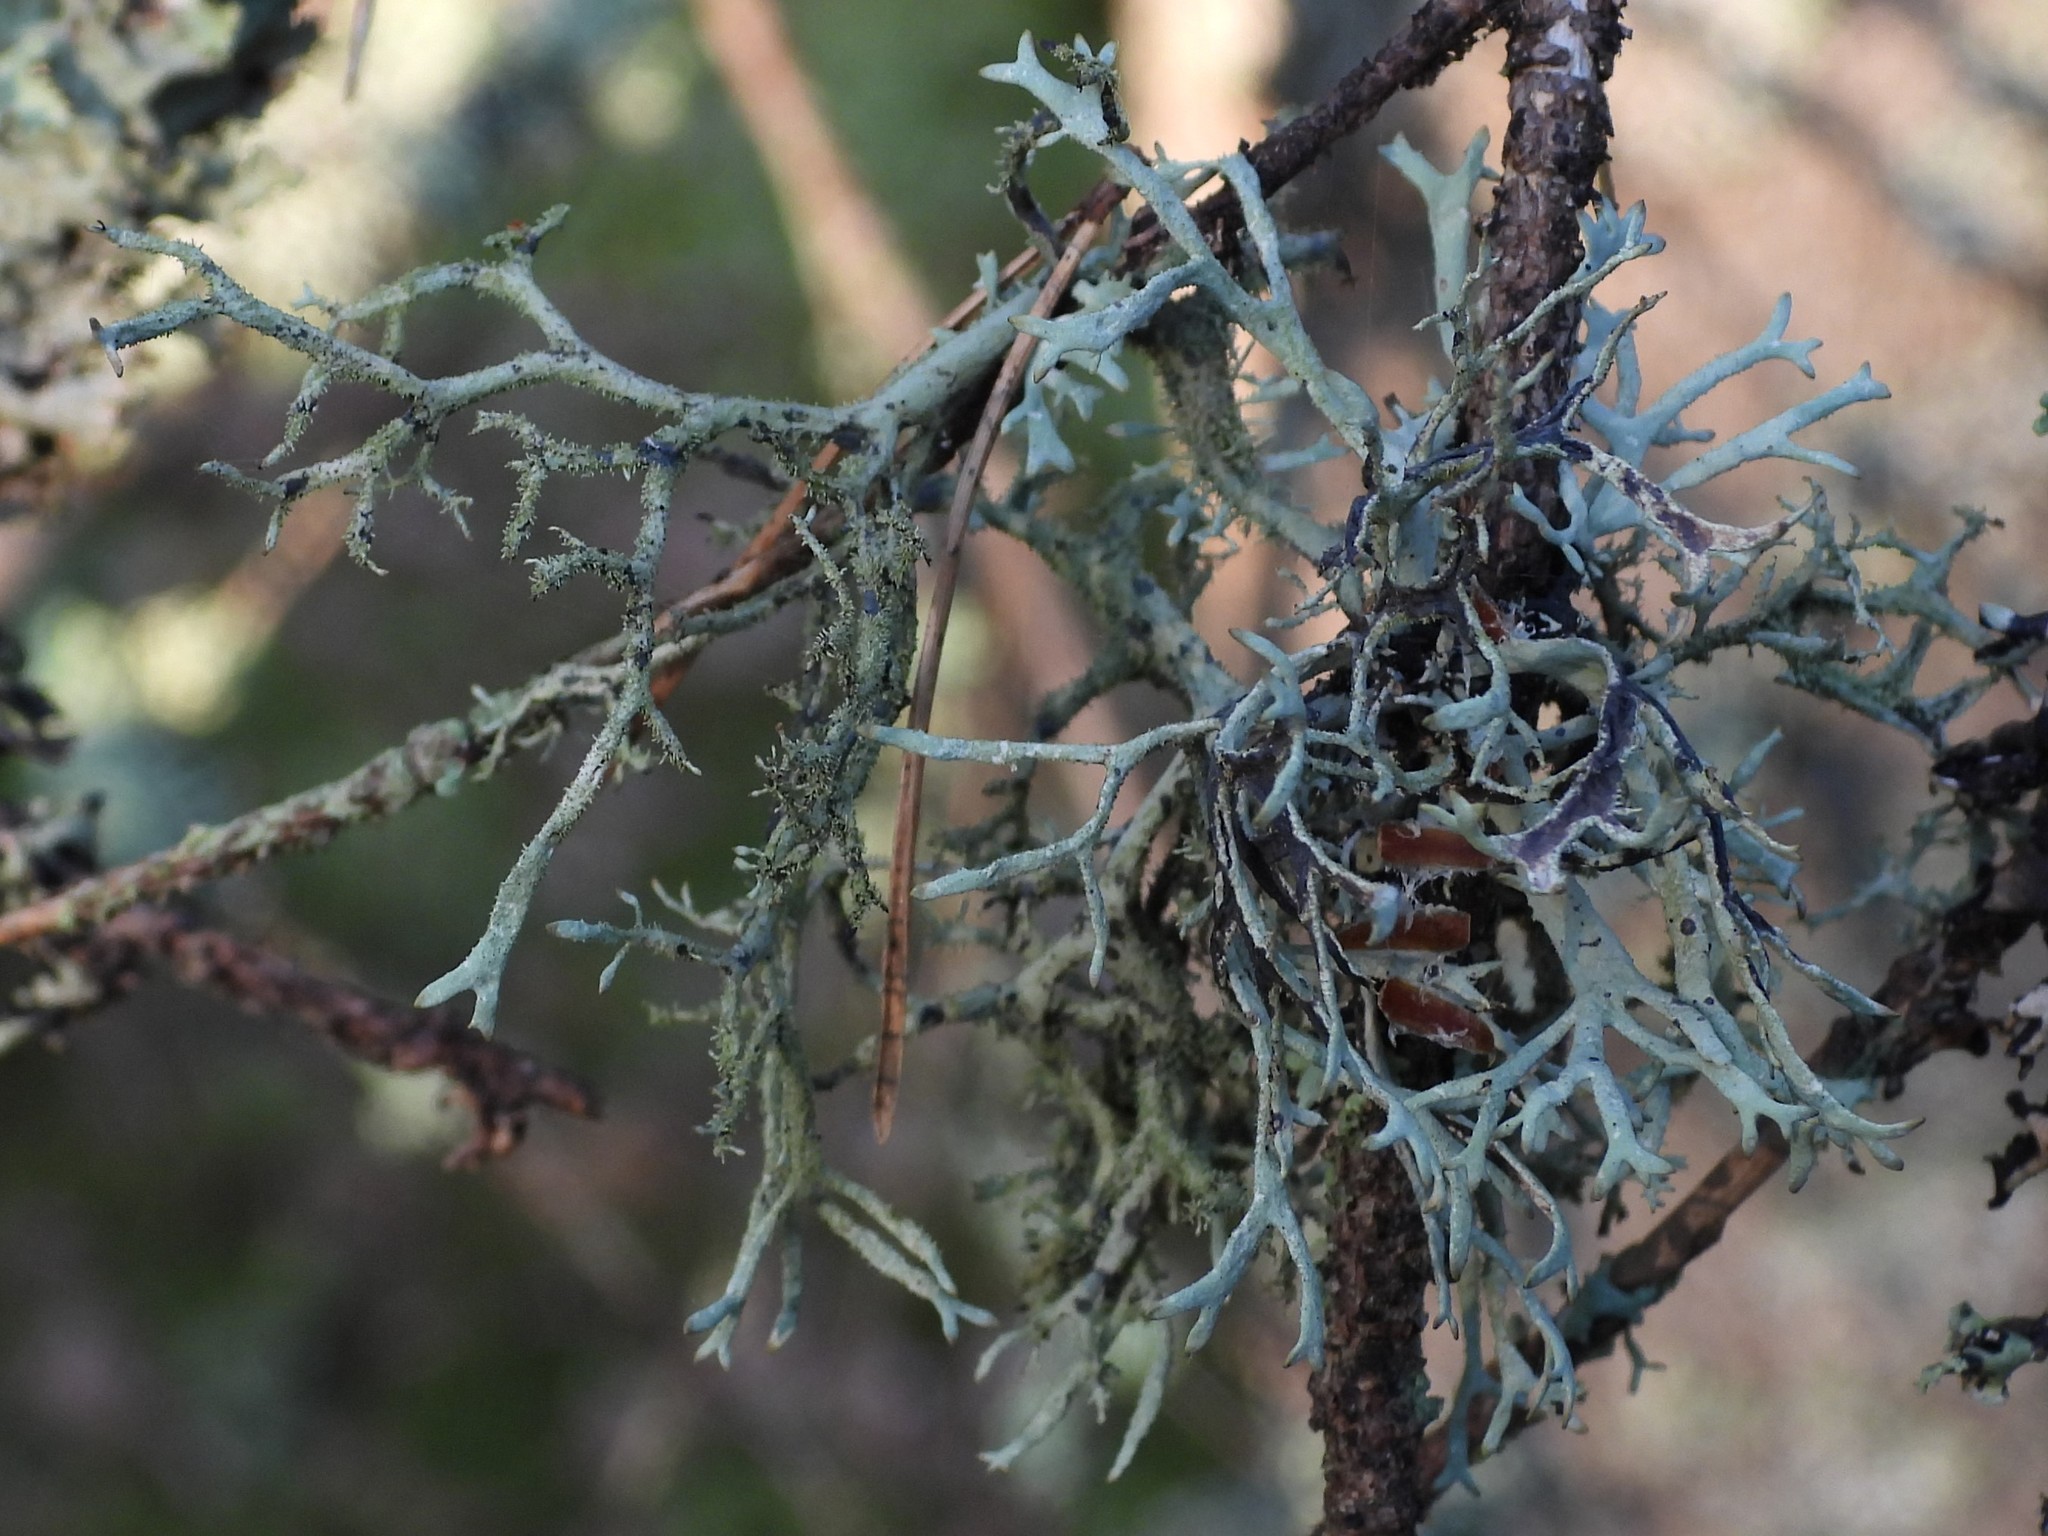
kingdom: Fungi
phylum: Ascomycota
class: Lecanoromycetes
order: Lecanorales
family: Parmeliaceae
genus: Pseudevernia
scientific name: Pseudevernia furfuracea
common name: Tree moss
